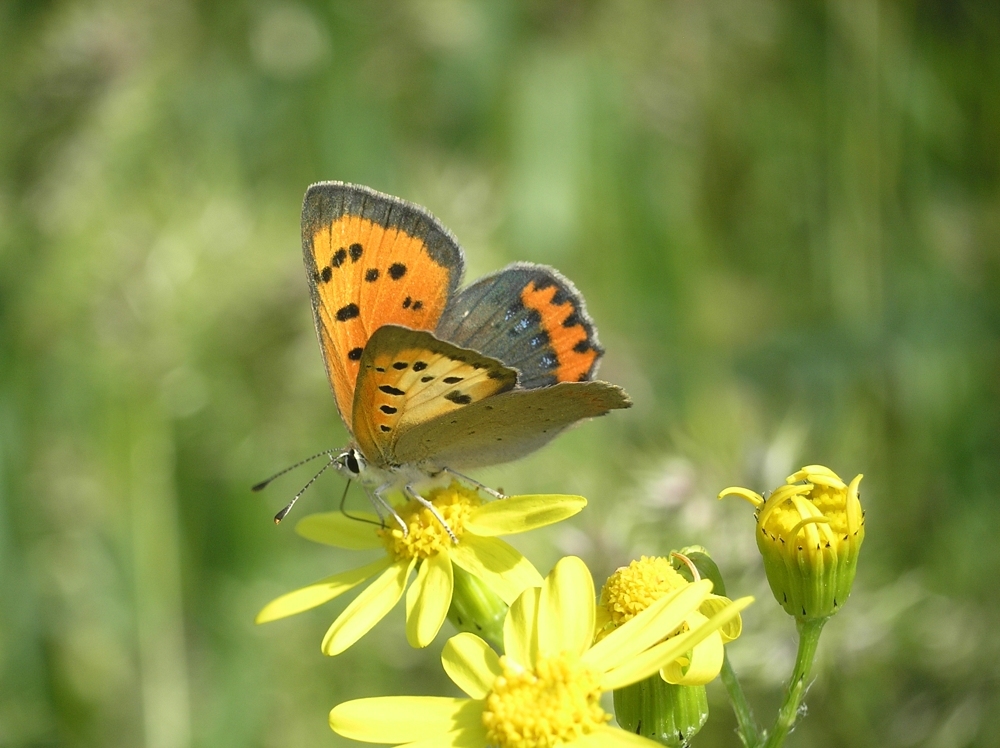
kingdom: Animalia
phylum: Arthropoda
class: Insecta
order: Lepidoptera
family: Lycaenidae
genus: Lycaena
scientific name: Lycaena phlaeas
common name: Small copper
